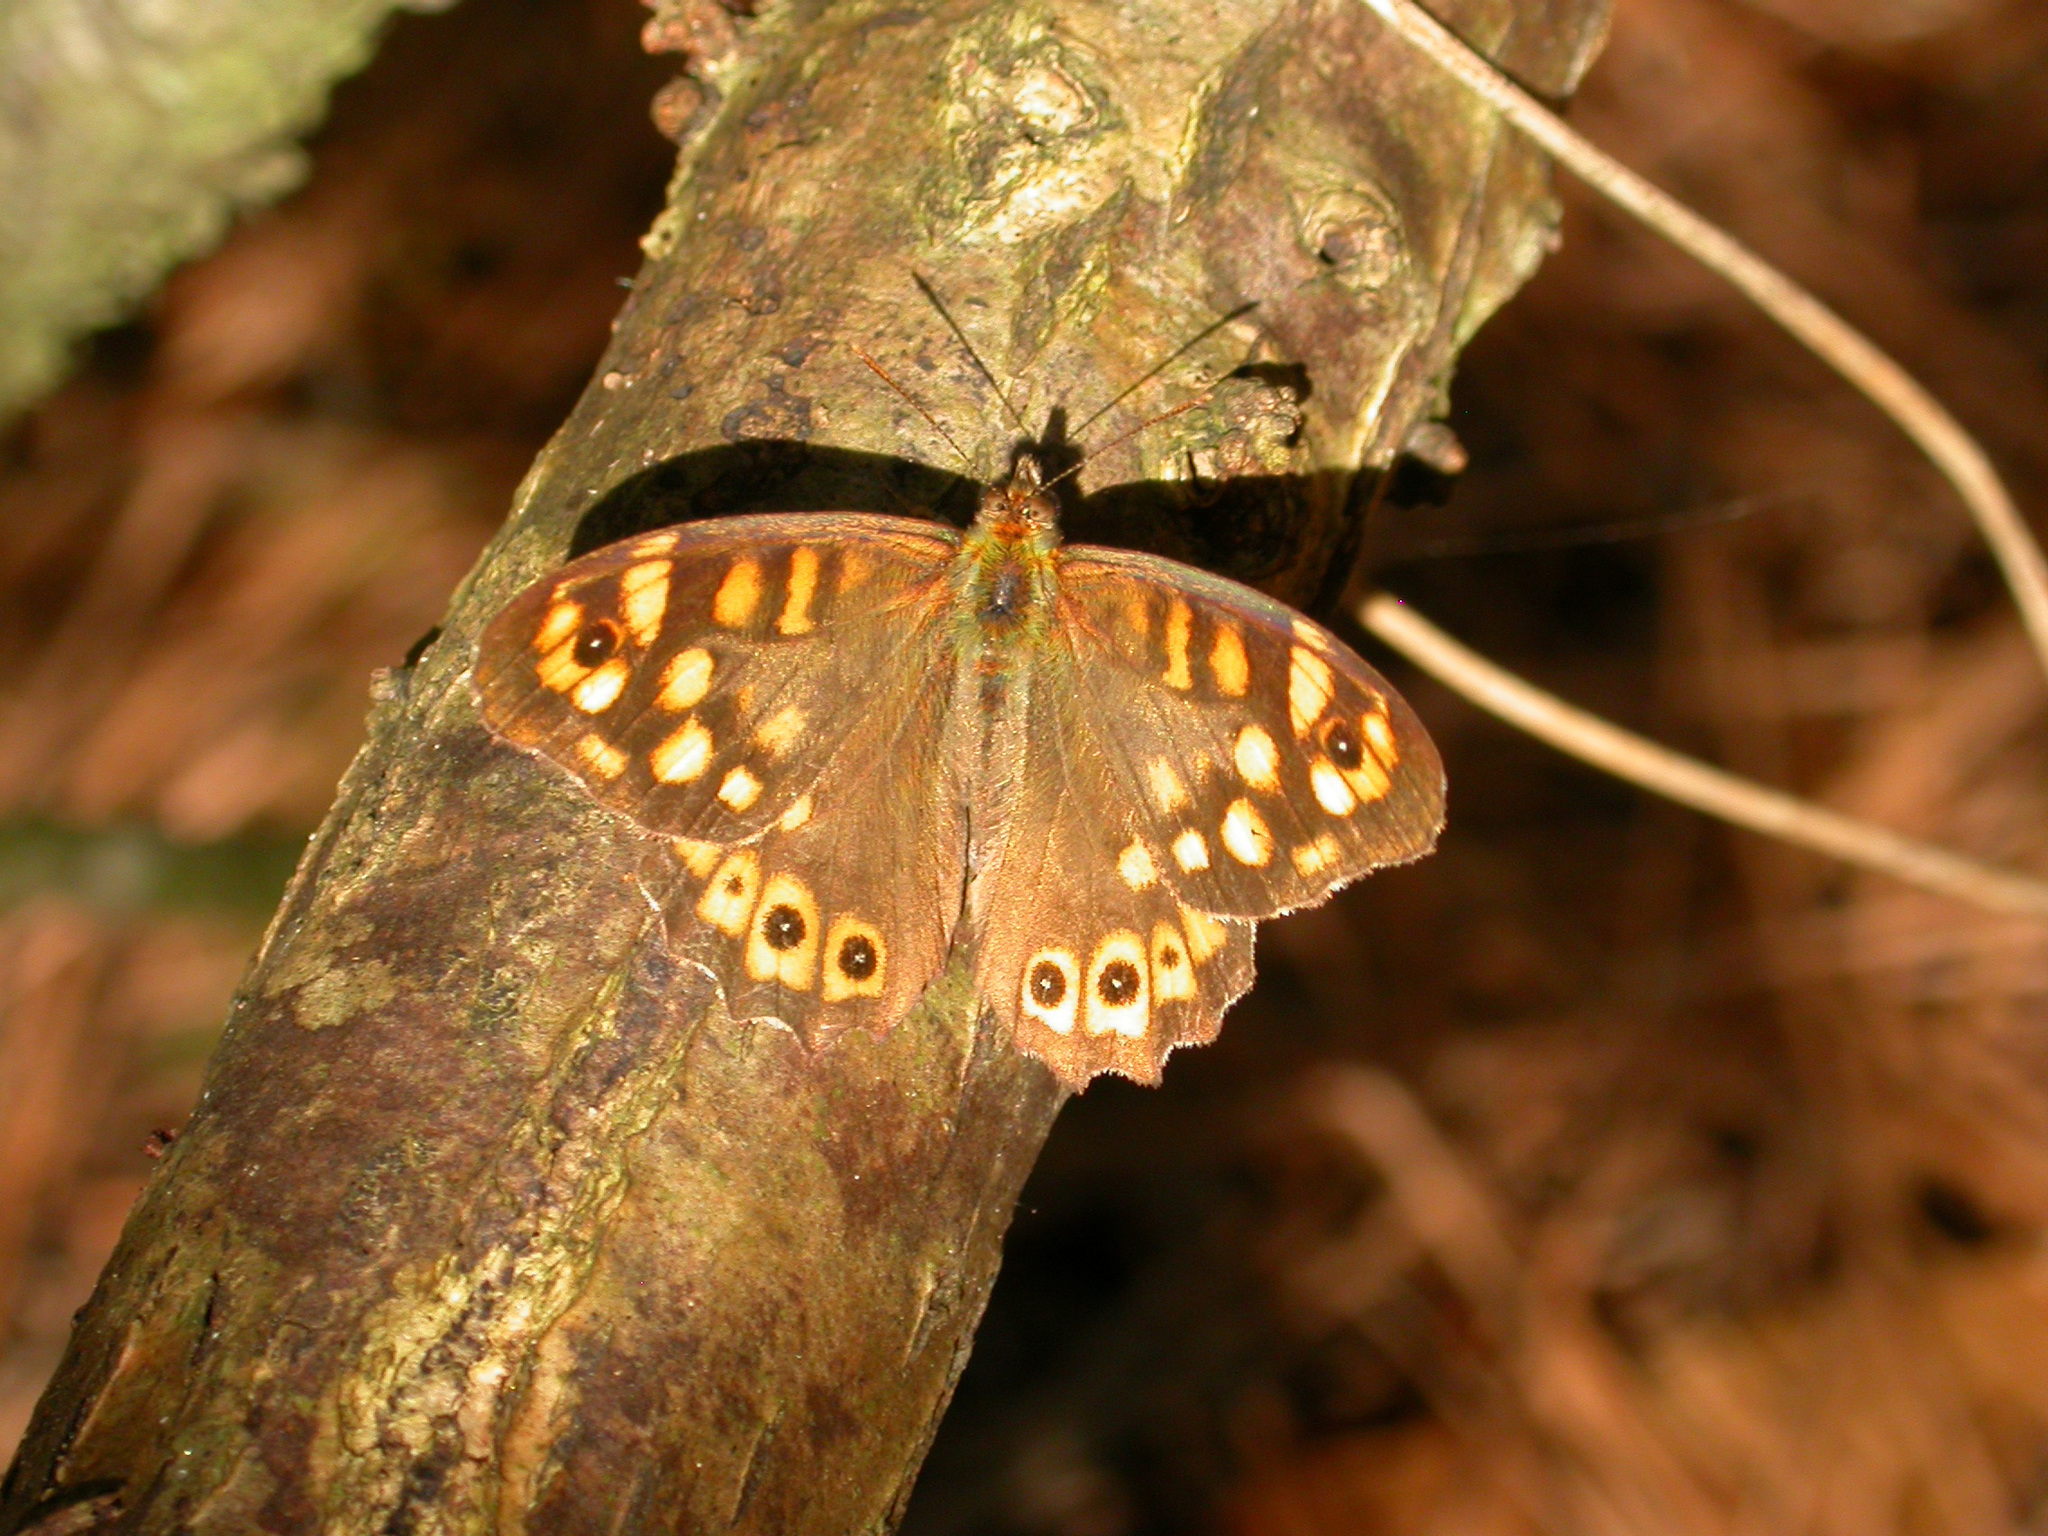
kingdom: Animalia
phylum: Arthropoda
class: Insecta
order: Lepidoptera
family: Nymphalidae
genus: Pararge
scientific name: Pararge aegeria
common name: Speckled wood
